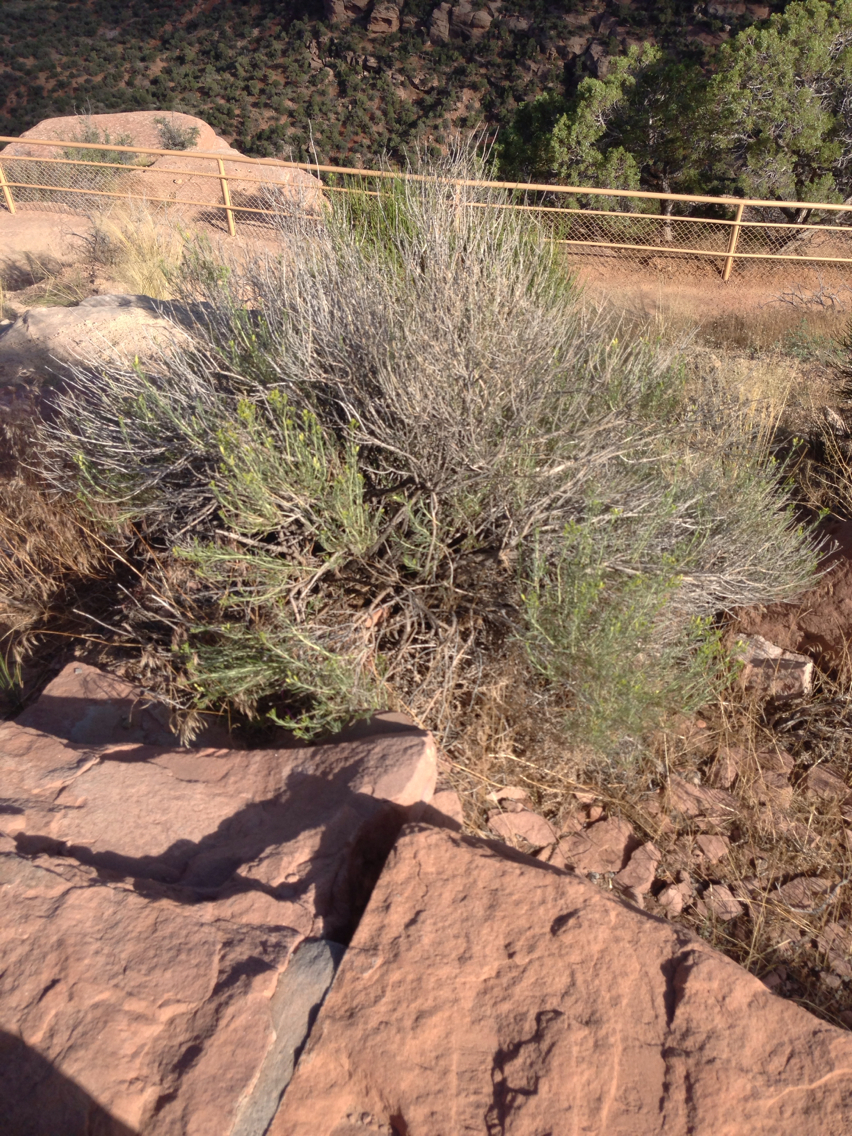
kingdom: Plantae
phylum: Tracheophyta
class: Magnoliopsida
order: Asterales
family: Asteraceae
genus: Ericameria
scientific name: Ericameria nauseosa
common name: Rubber rabbitbrush
